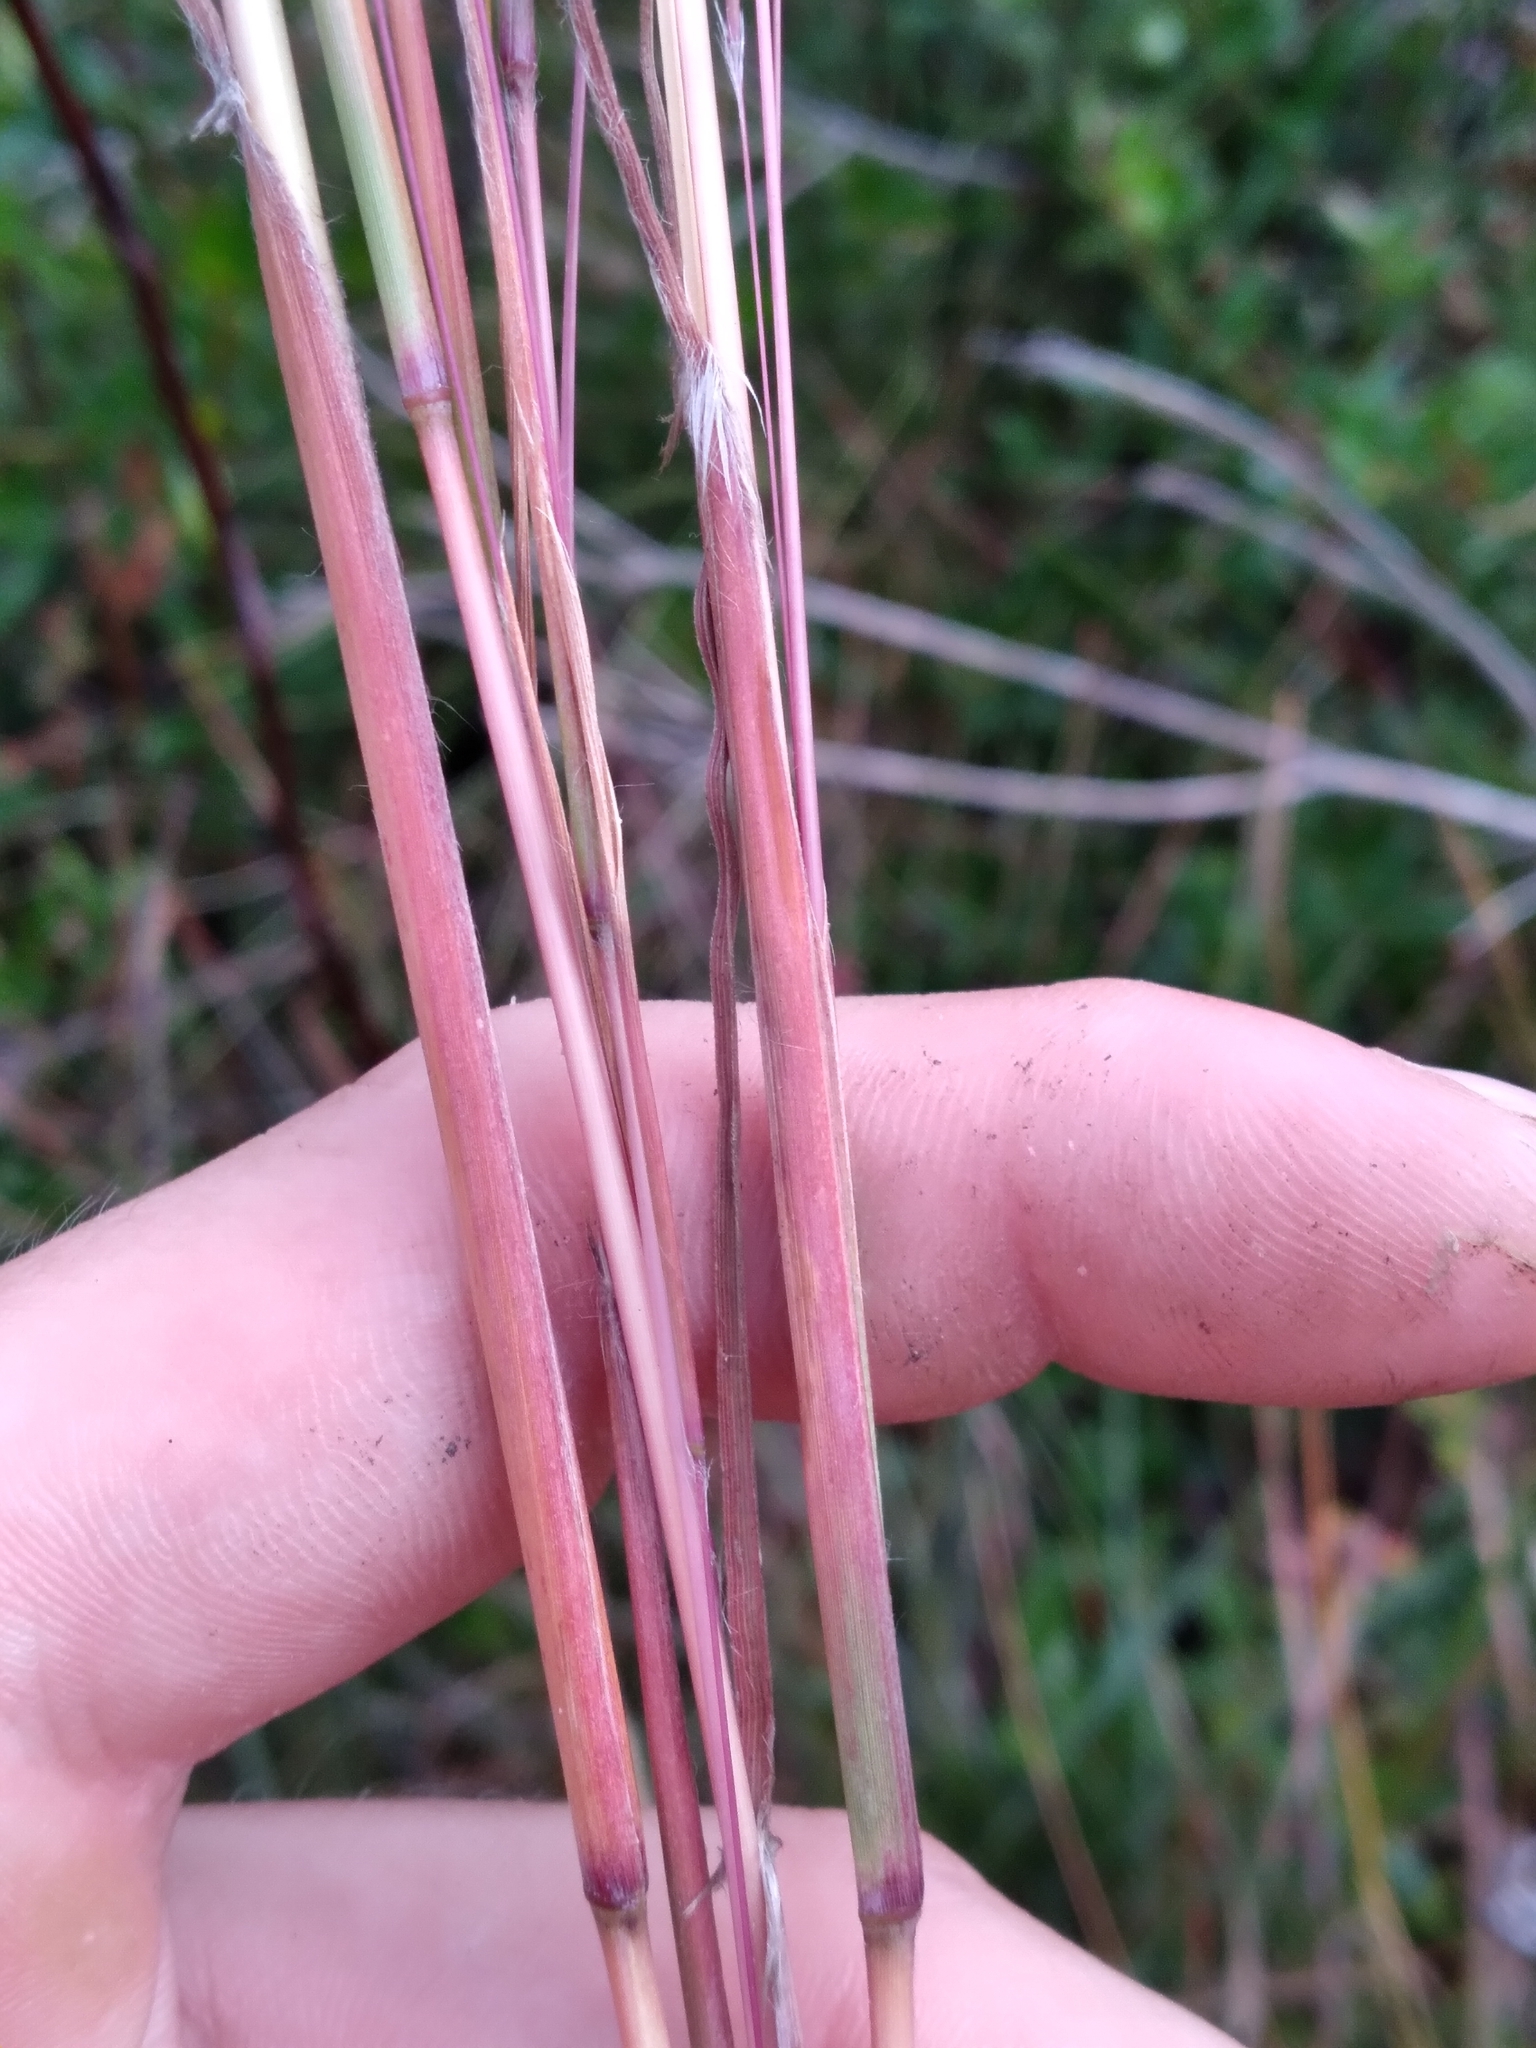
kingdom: Plantae
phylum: Tracheophyta
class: Liliopsida
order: Poales
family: Poaceae
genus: Andropogon
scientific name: Andropogon arctatus
